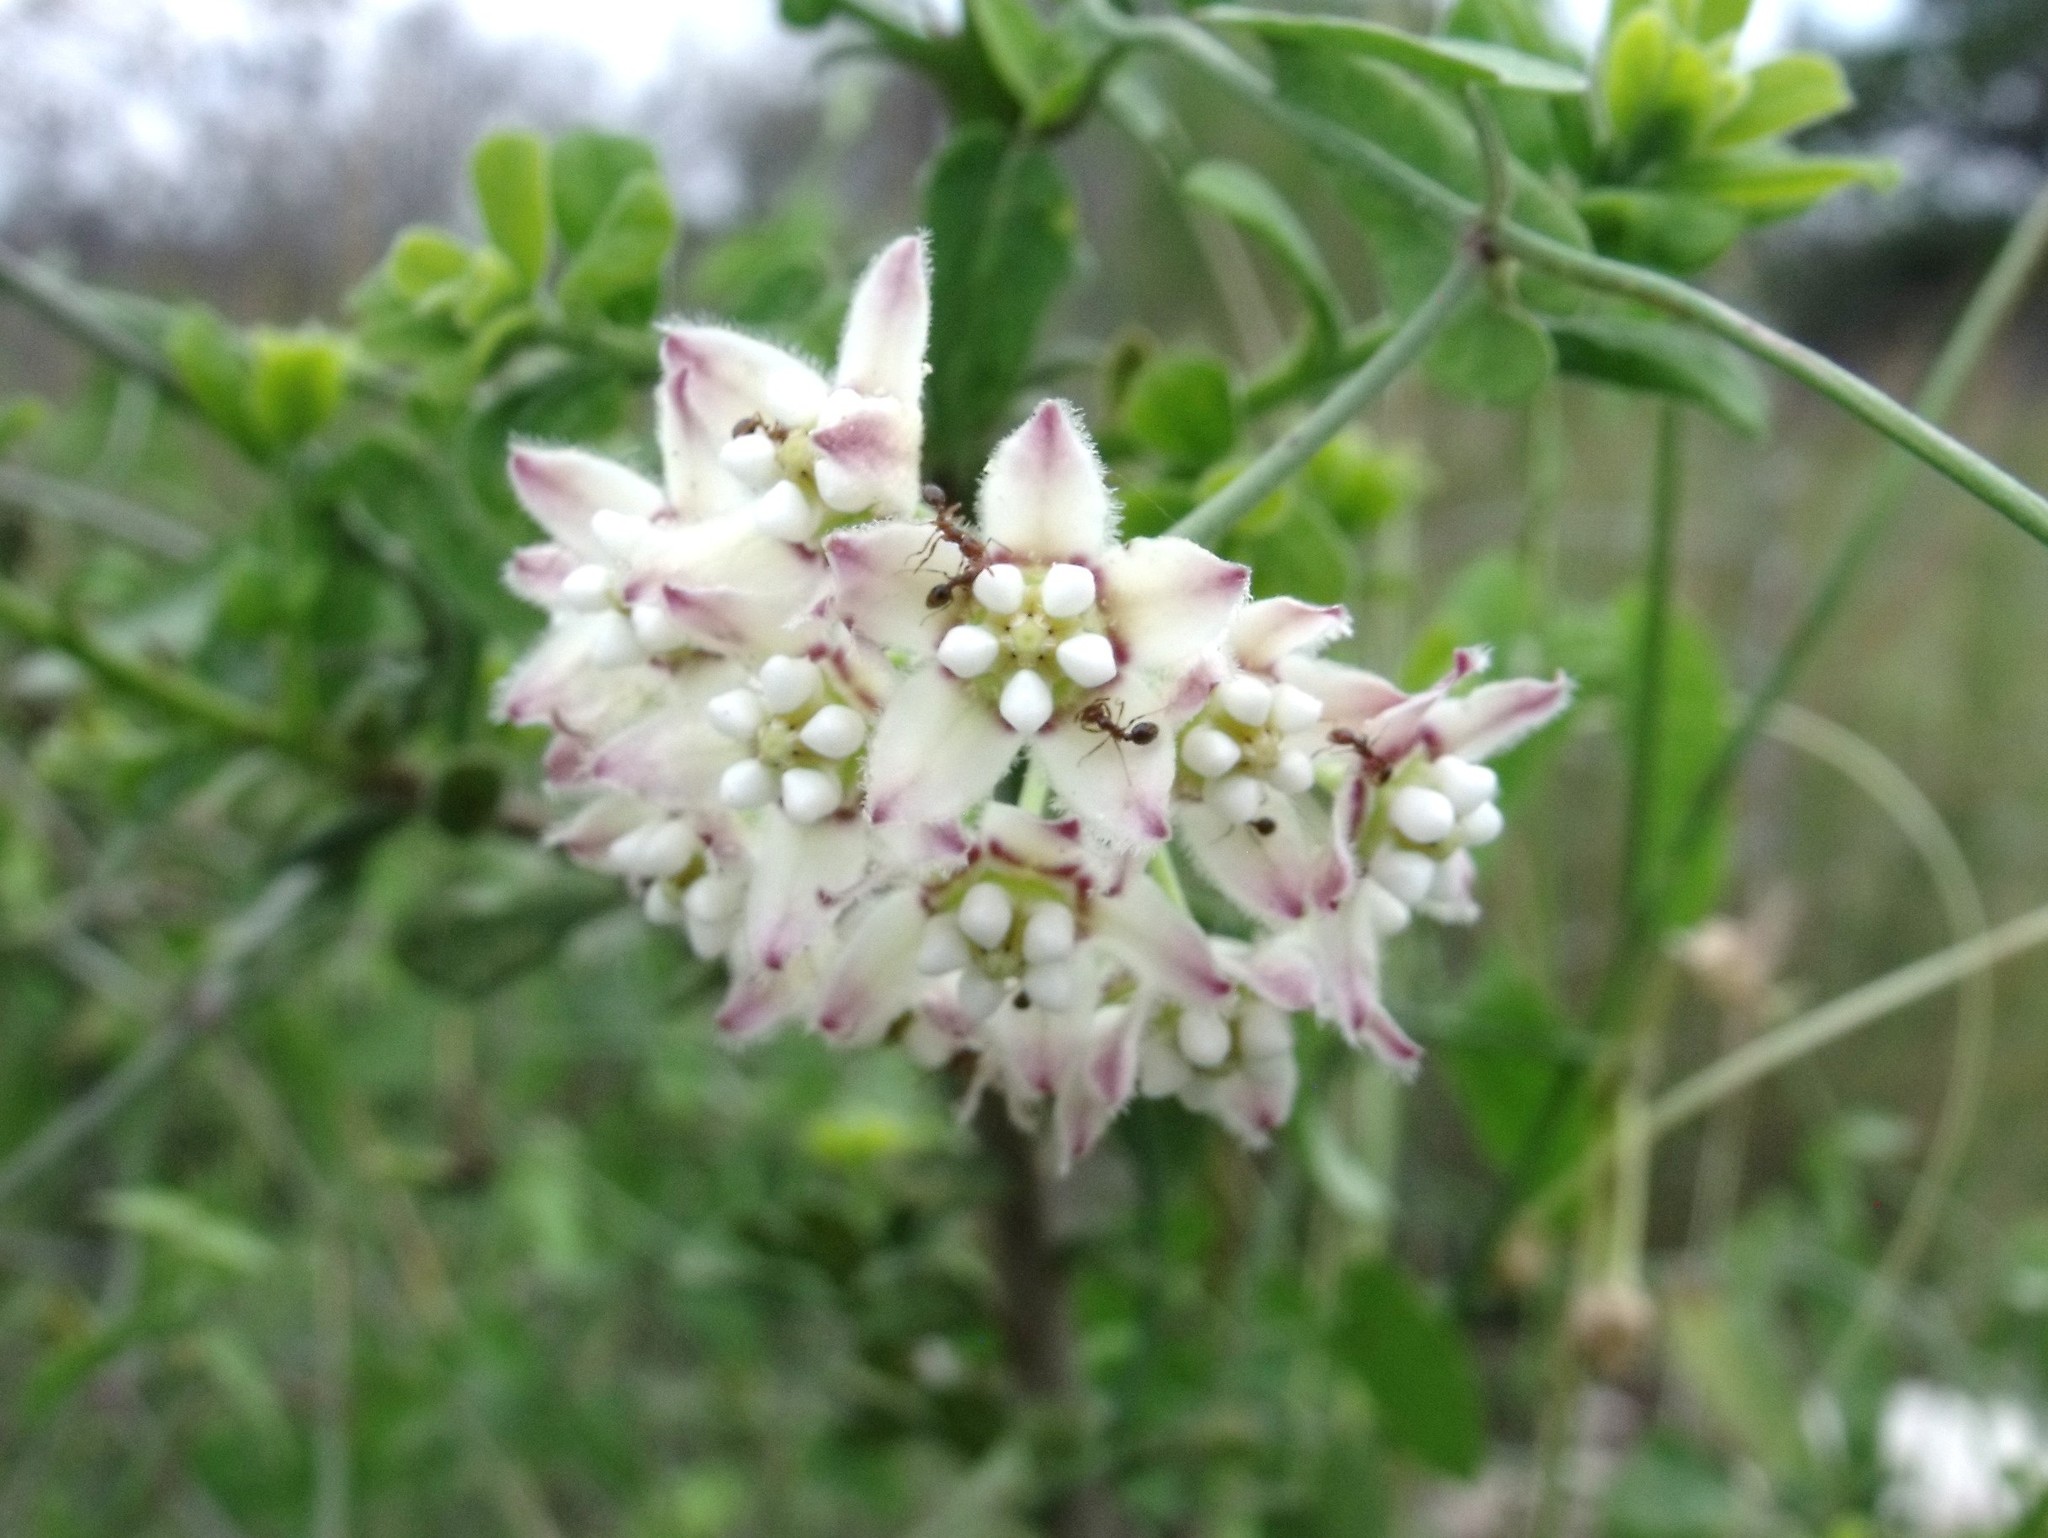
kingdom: Plantae
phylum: Tracheophyta
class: Magnoliopsida
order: Gentianales
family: Apocynaceae
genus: Funastrum
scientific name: Funastrum cynanchoides
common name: Climbing-milkweed
